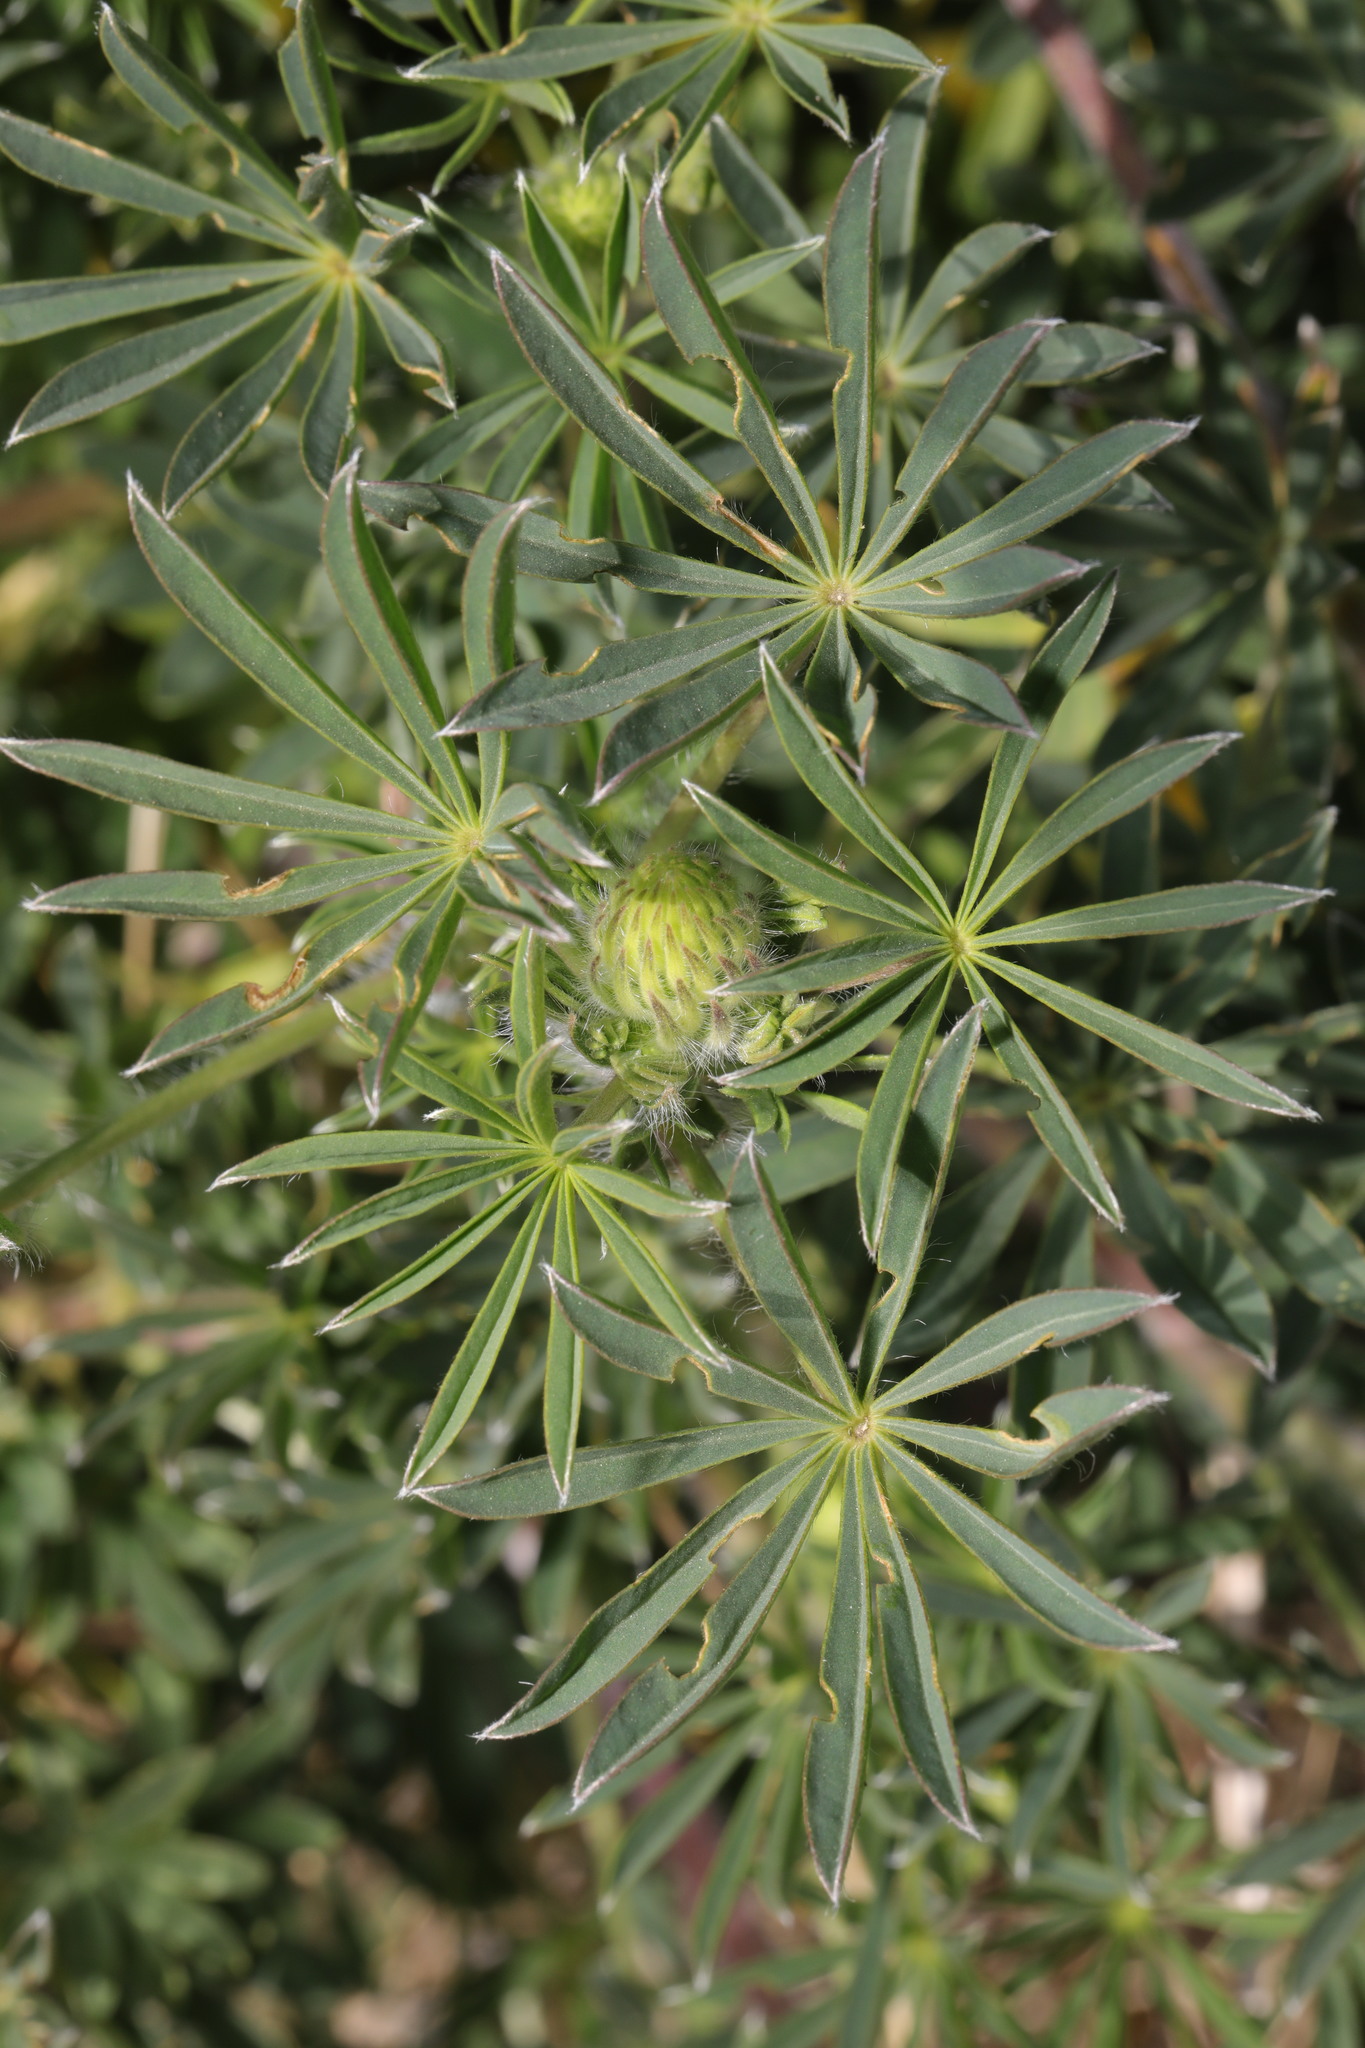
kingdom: Plantae
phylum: Tracheophyta
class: Magnoliopsida
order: Fabales
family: Fabaceae
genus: Lupinus
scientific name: Lupinus arboreus
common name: Yellow bush lupine
